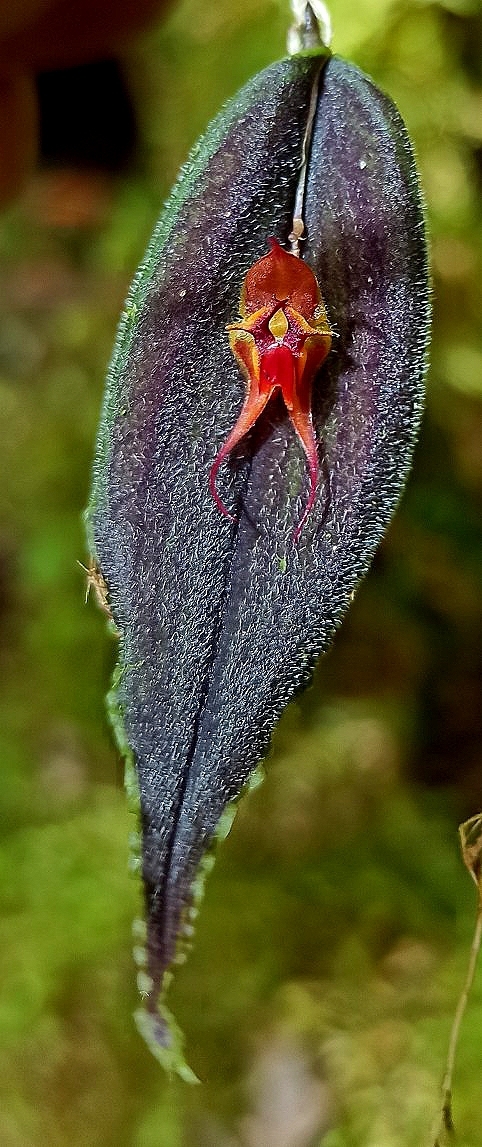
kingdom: Plantae
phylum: Tracheophyta
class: Liliopsida
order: Asparagales
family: Orchidaceae
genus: Lepanthes
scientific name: Lepanthes dactylopetala
